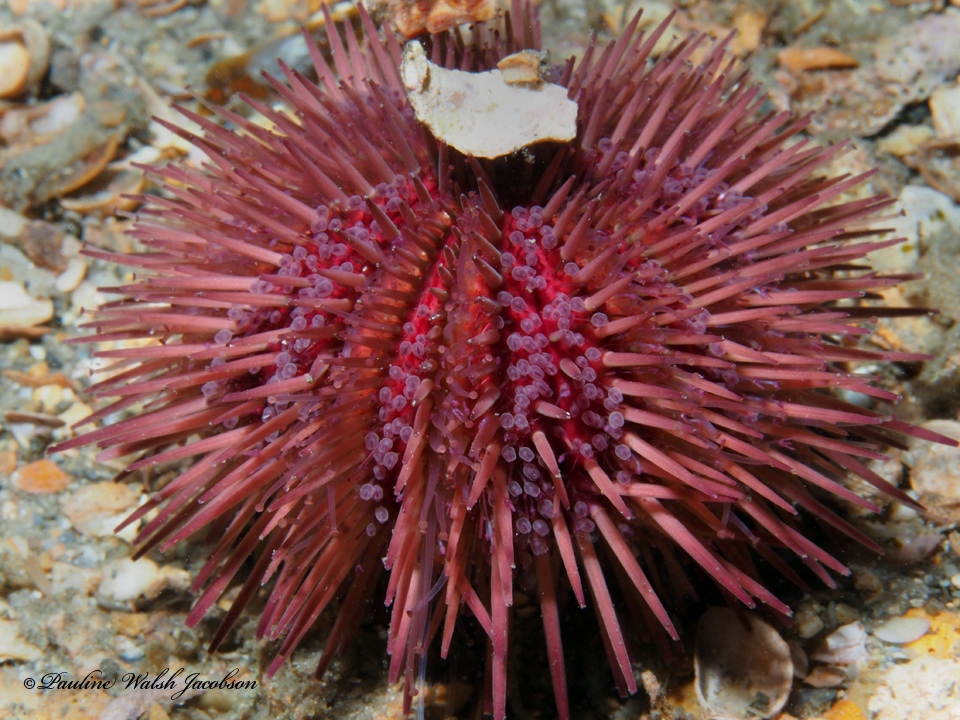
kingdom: Animalia
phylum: Echinodermata
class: Echinoidea
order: Camarodonta
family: Toxopneustidae
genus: Lytechinus
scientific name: Lytechinus variegatus
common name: Variegated urchin
